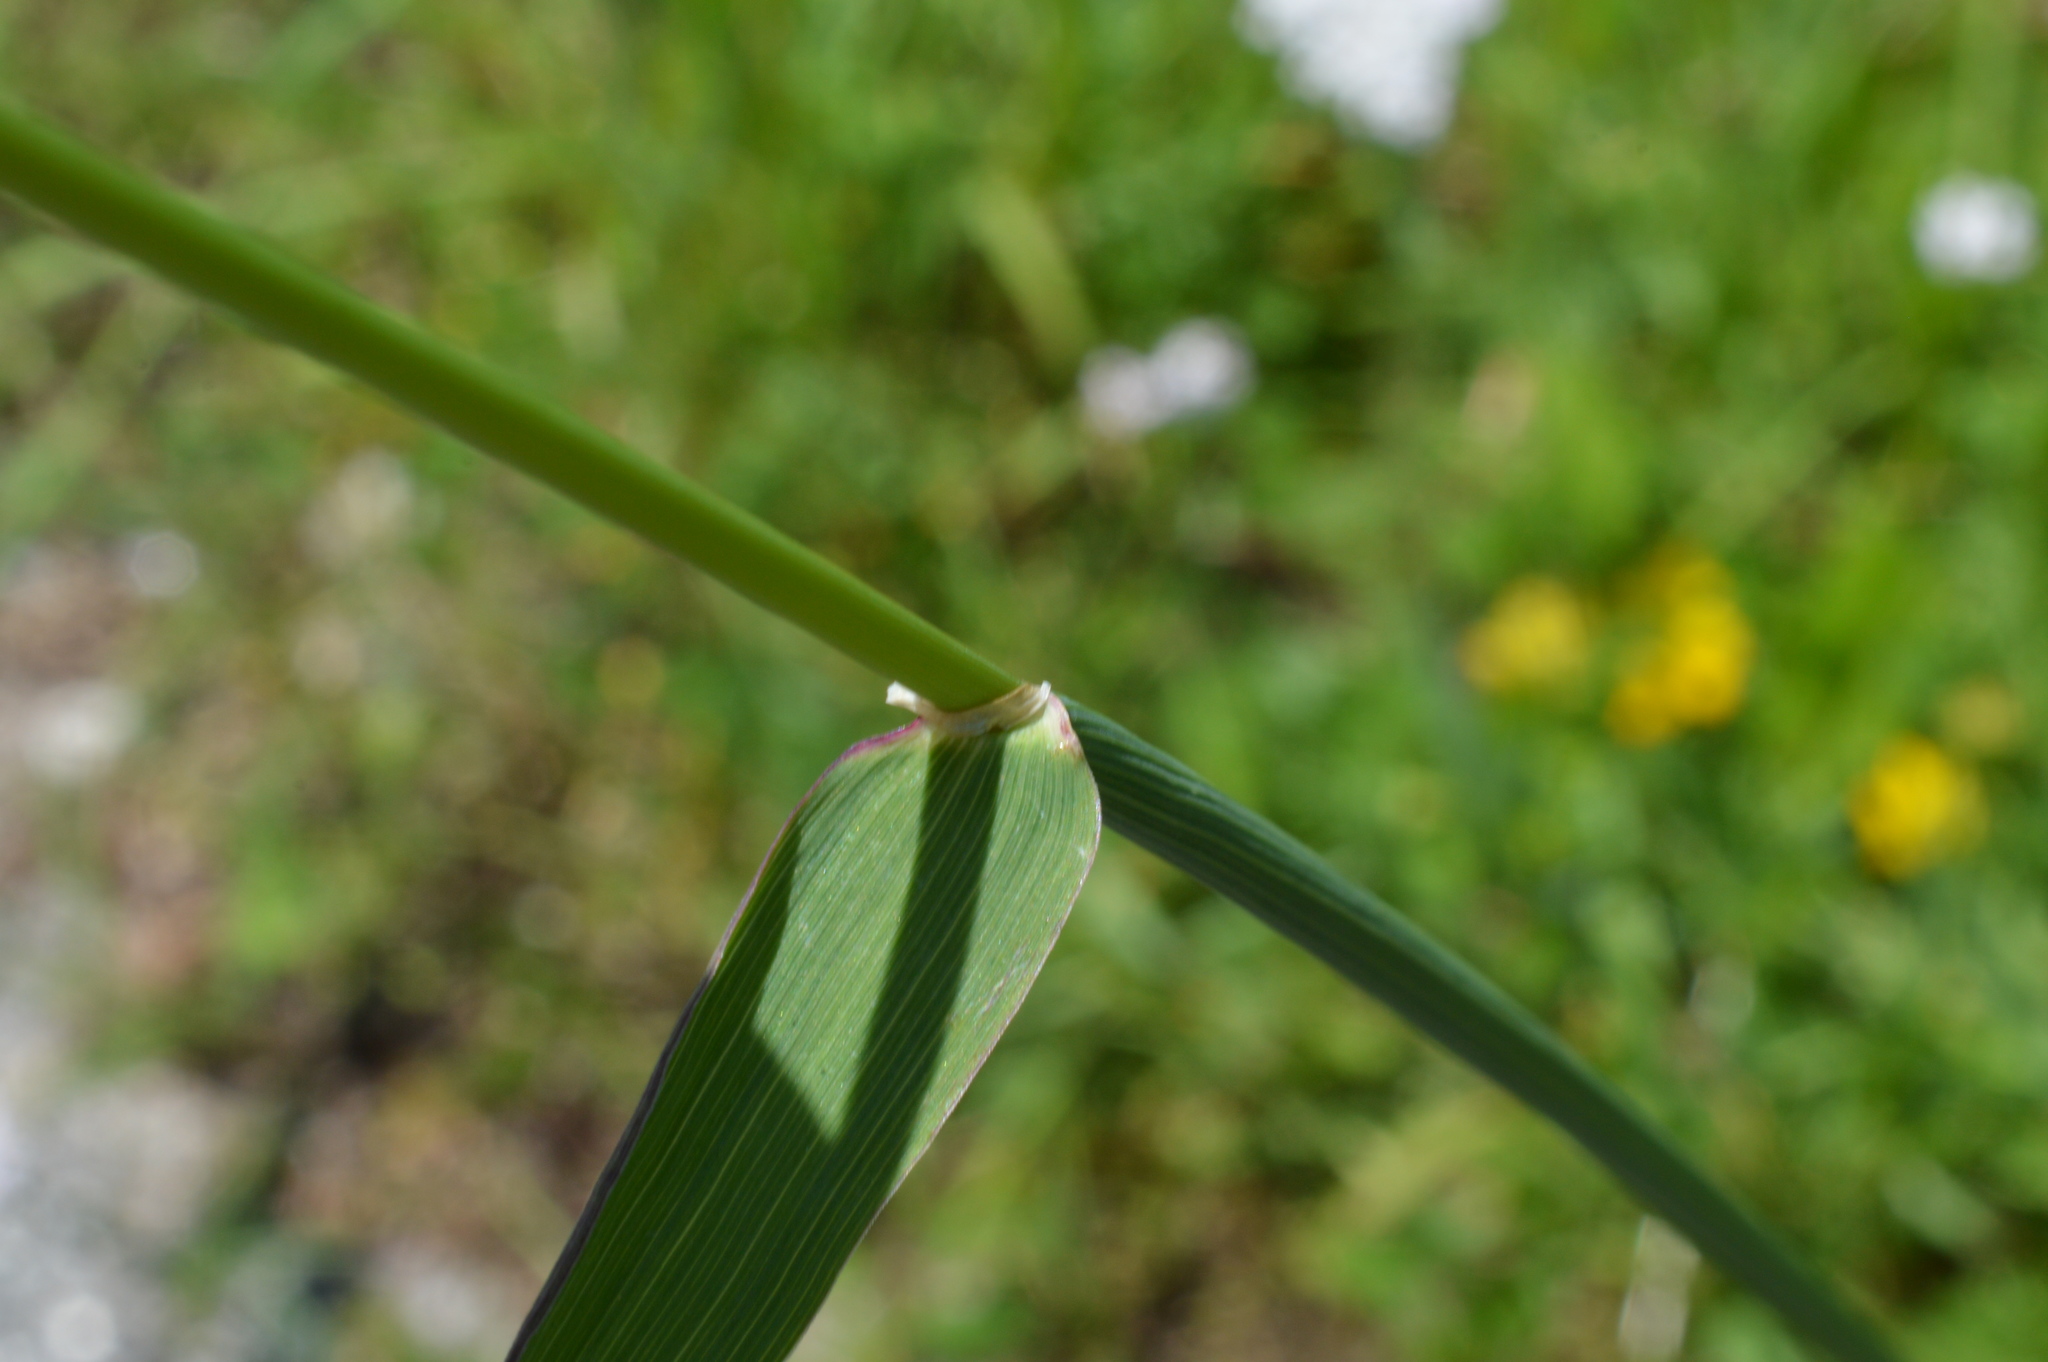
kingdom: Plantae
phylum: Tracheophyta
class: Liliopsida
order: Poales
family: Poaceae
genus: Phleum
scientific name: Phleum pratense
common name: Timothy grass
